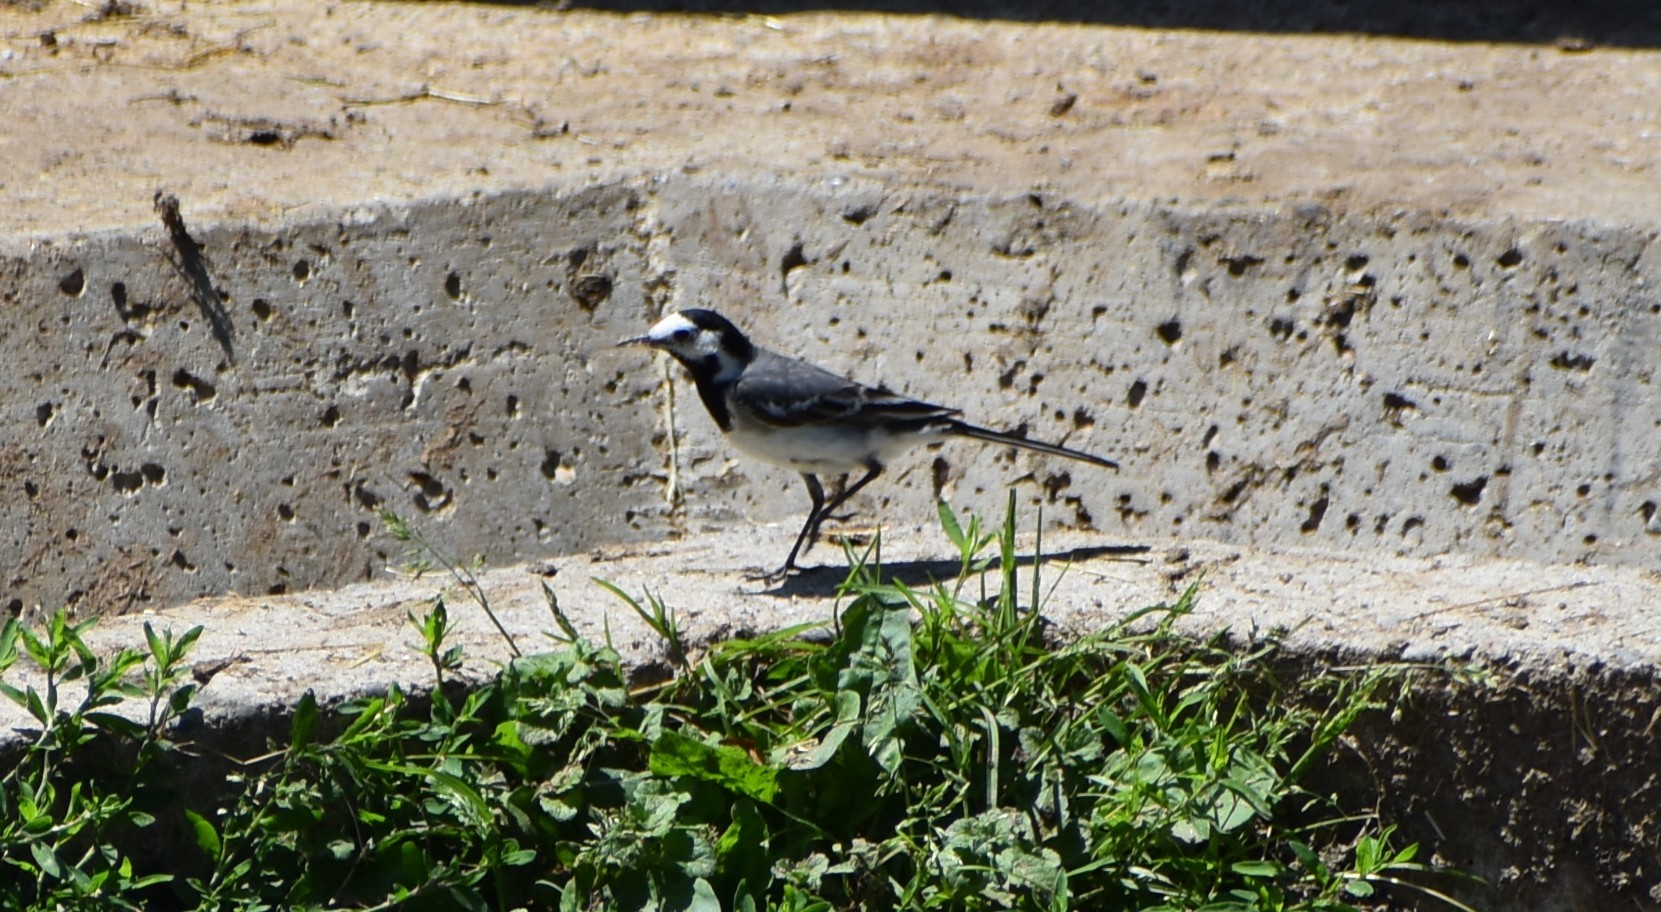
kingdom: Animalia
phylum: Chordata
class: Aves
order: Passeriformes
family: Motacillidae
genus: Motacilla
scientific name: Motacilla alba
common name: White wagtail
